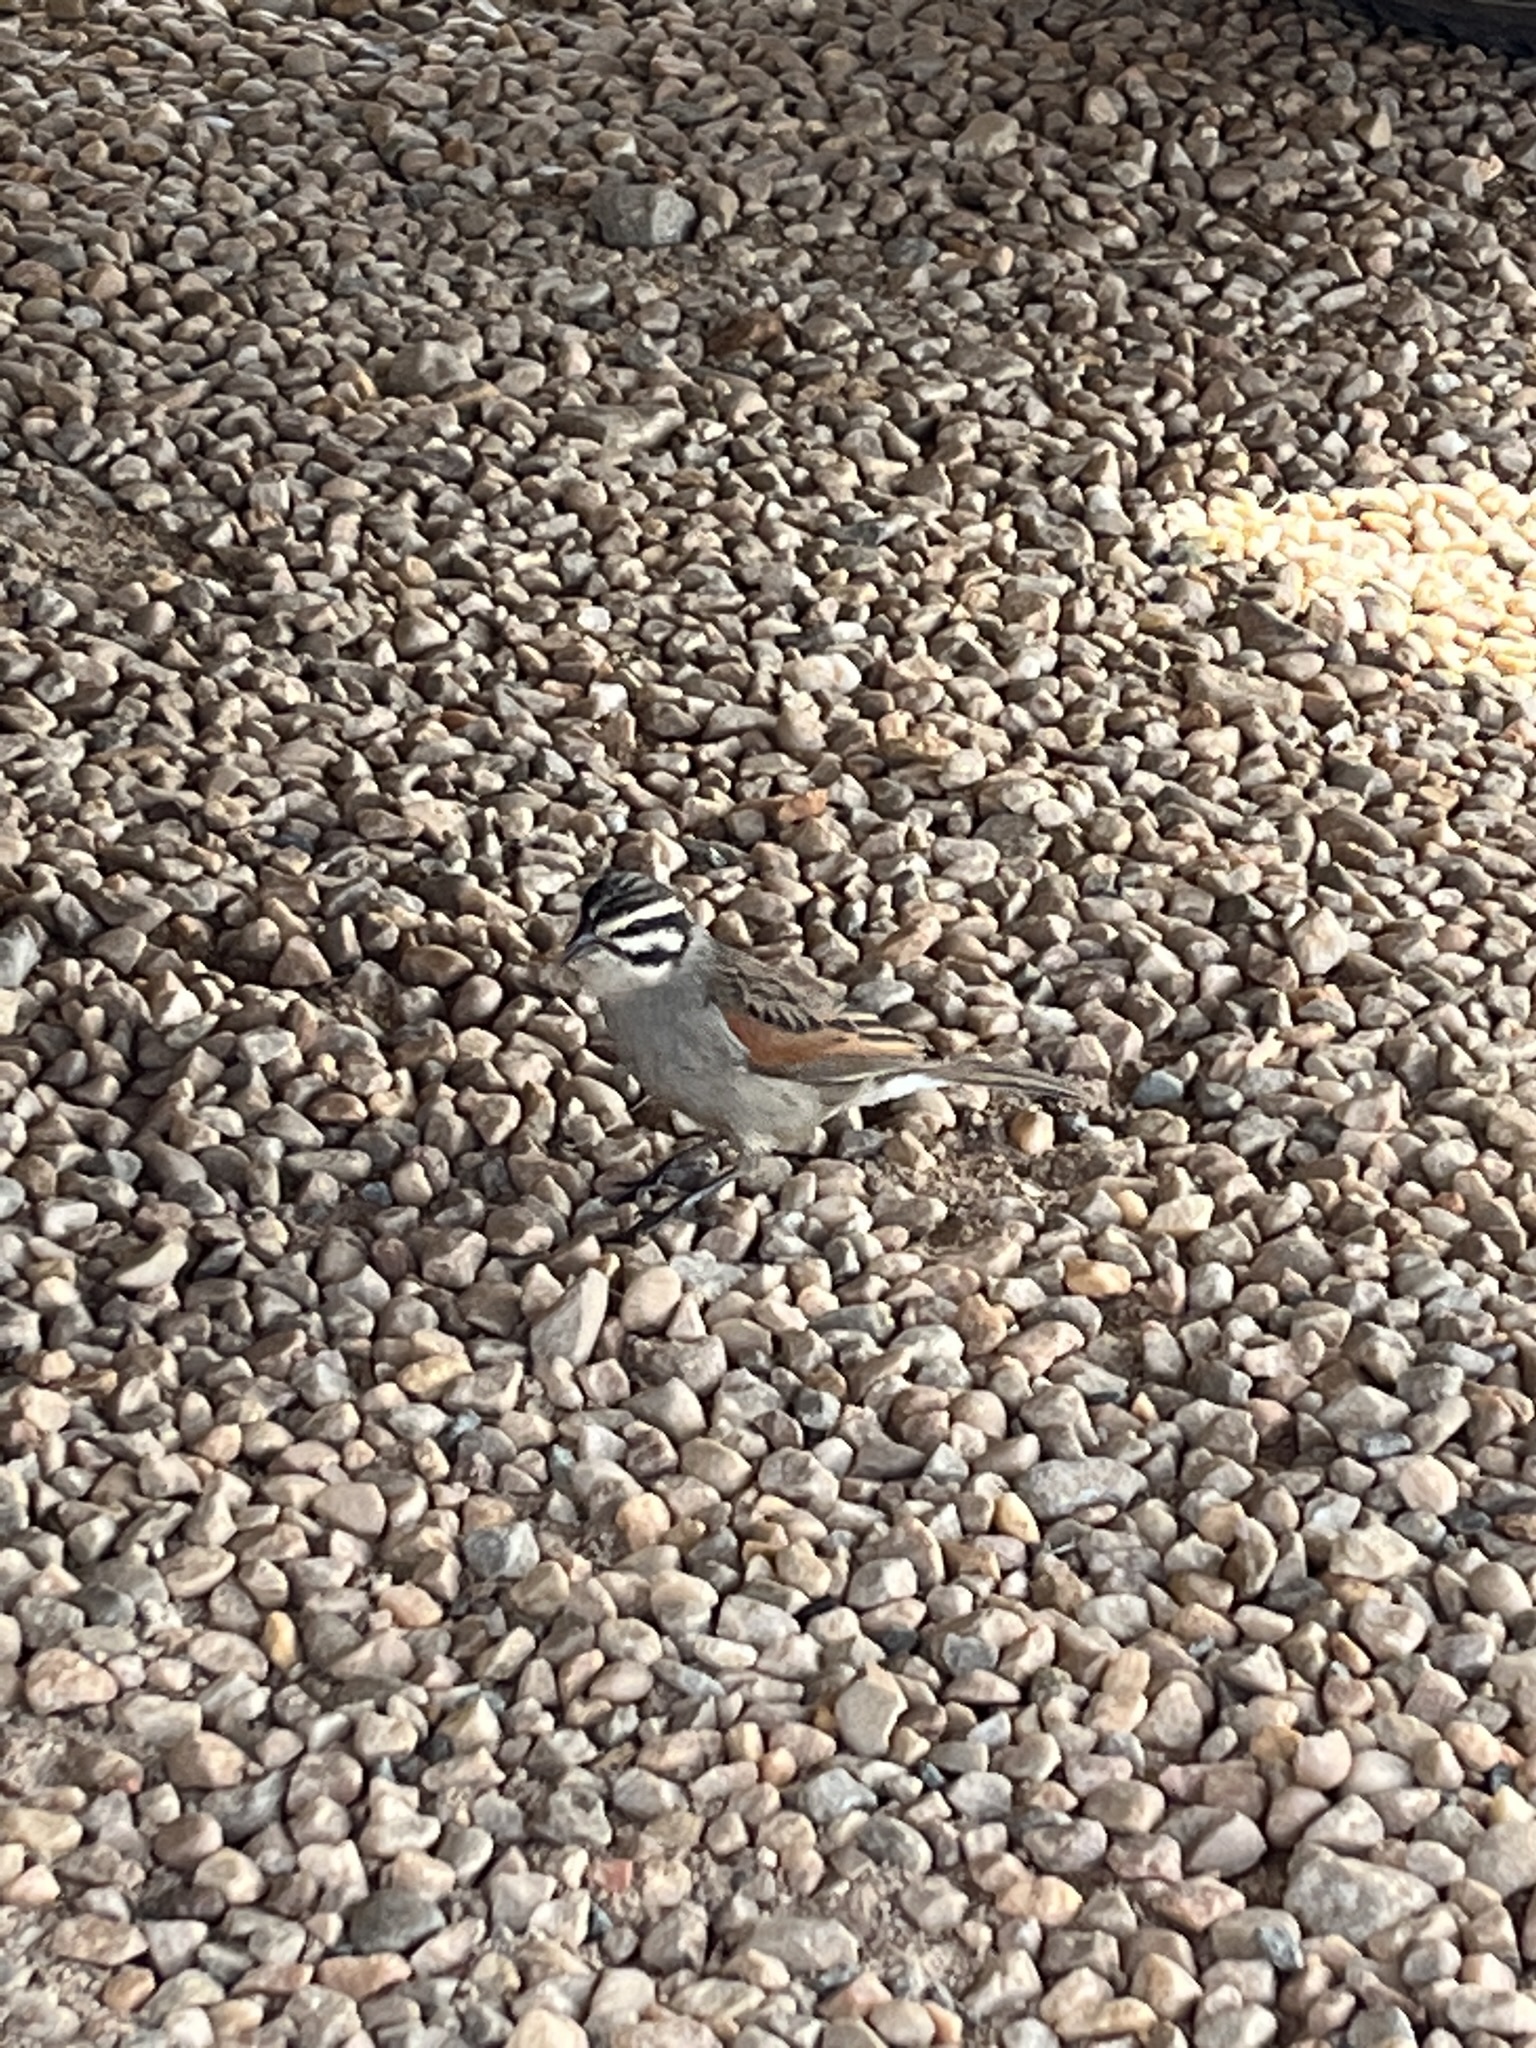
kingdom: Animalia
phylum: Chordata
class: Aves
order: Passeriformes
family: Emberizidae
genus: Emberiza
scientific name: Emberiza capensis
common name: Cape bunting
